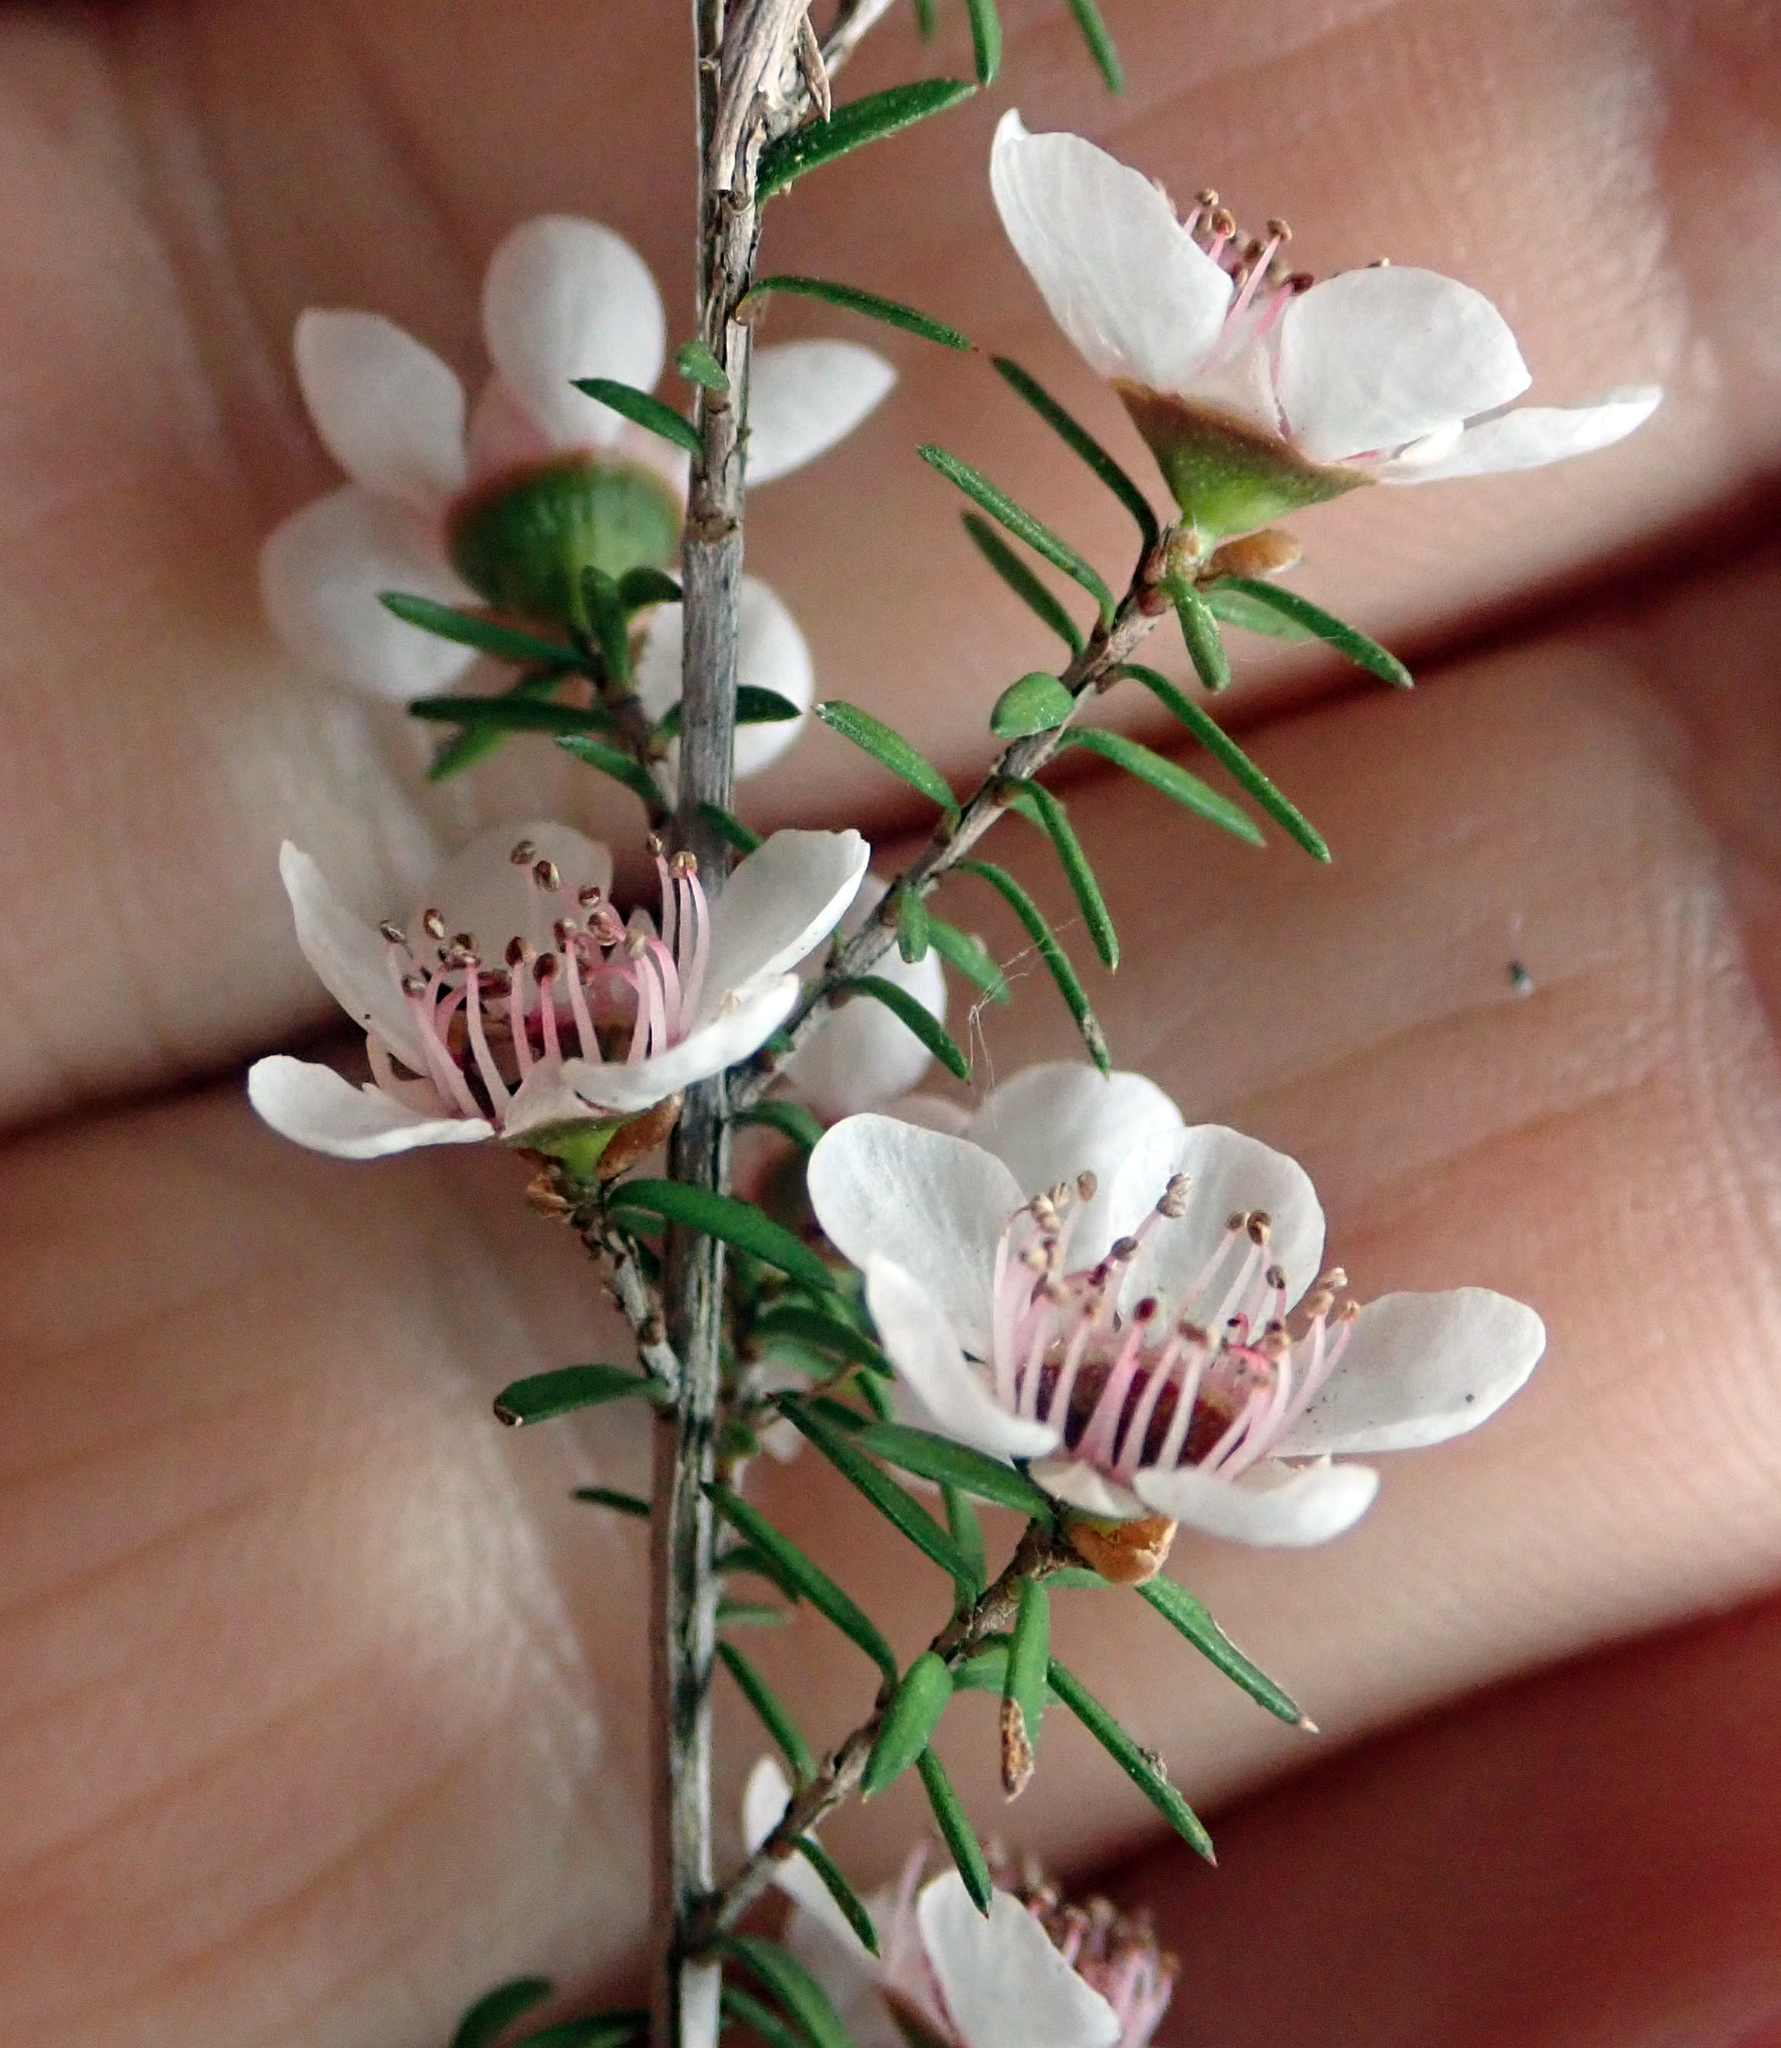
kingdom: Plantae
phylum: Tracheophyta
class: Magnoliopsida
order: Myrtales
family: Myrtaceae
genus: Leptospermum
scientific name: Leptospermum scoparium
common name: Broom tea-tree
